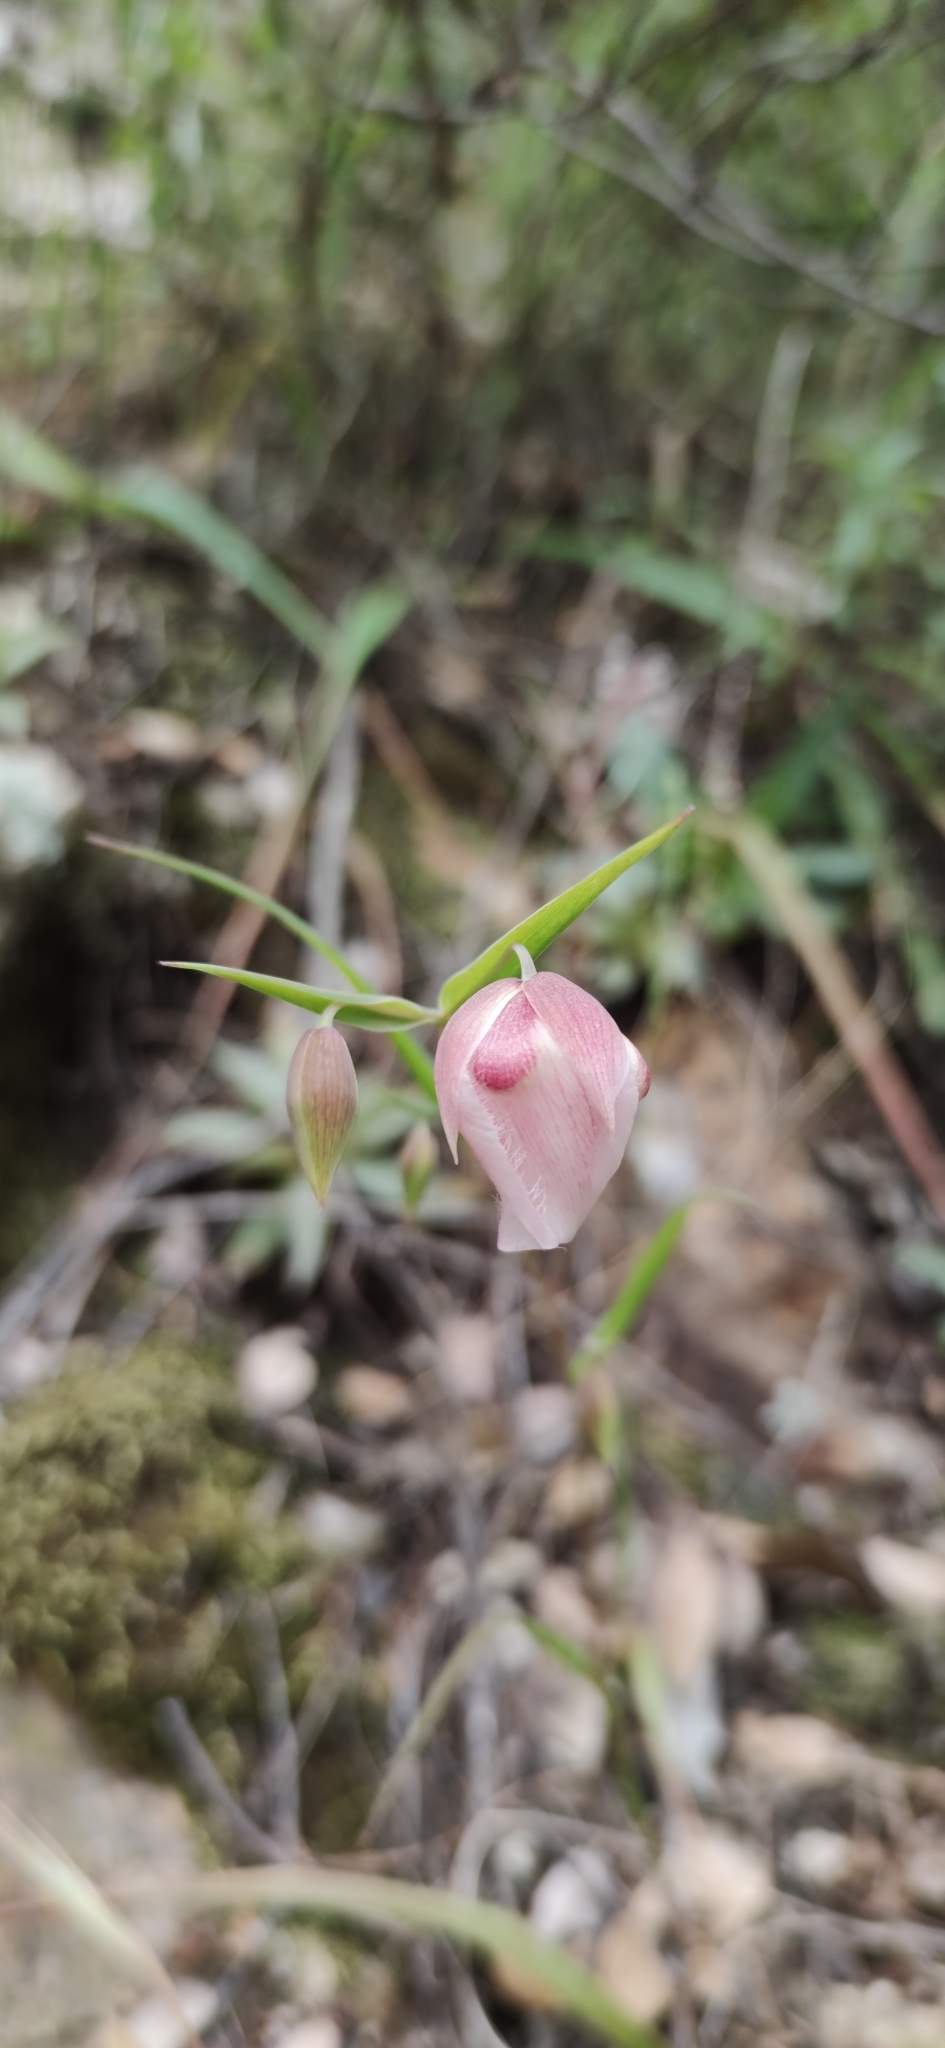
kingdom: Plantae
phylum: Tracheophyta
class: Liliopsida
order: Liliales
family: Liliaceae
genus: Calochortus
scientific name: Calochortus albus
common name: Fairy-lantern
